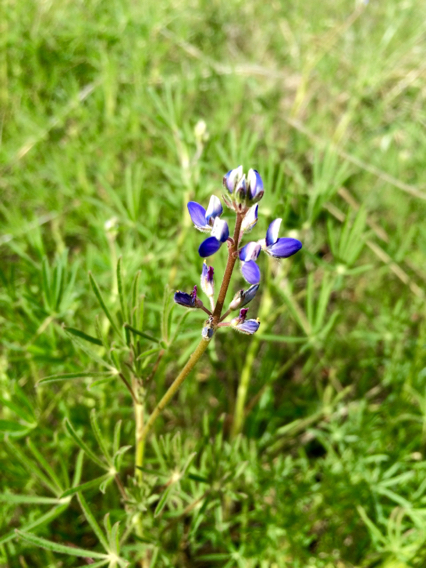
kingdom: Plantae
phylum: Tracheophyta
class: Magnoliopsida
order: Fabales
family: Fabaceae
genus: Lupinus
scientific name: Lupinus bicolor
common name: Miniature lupine
